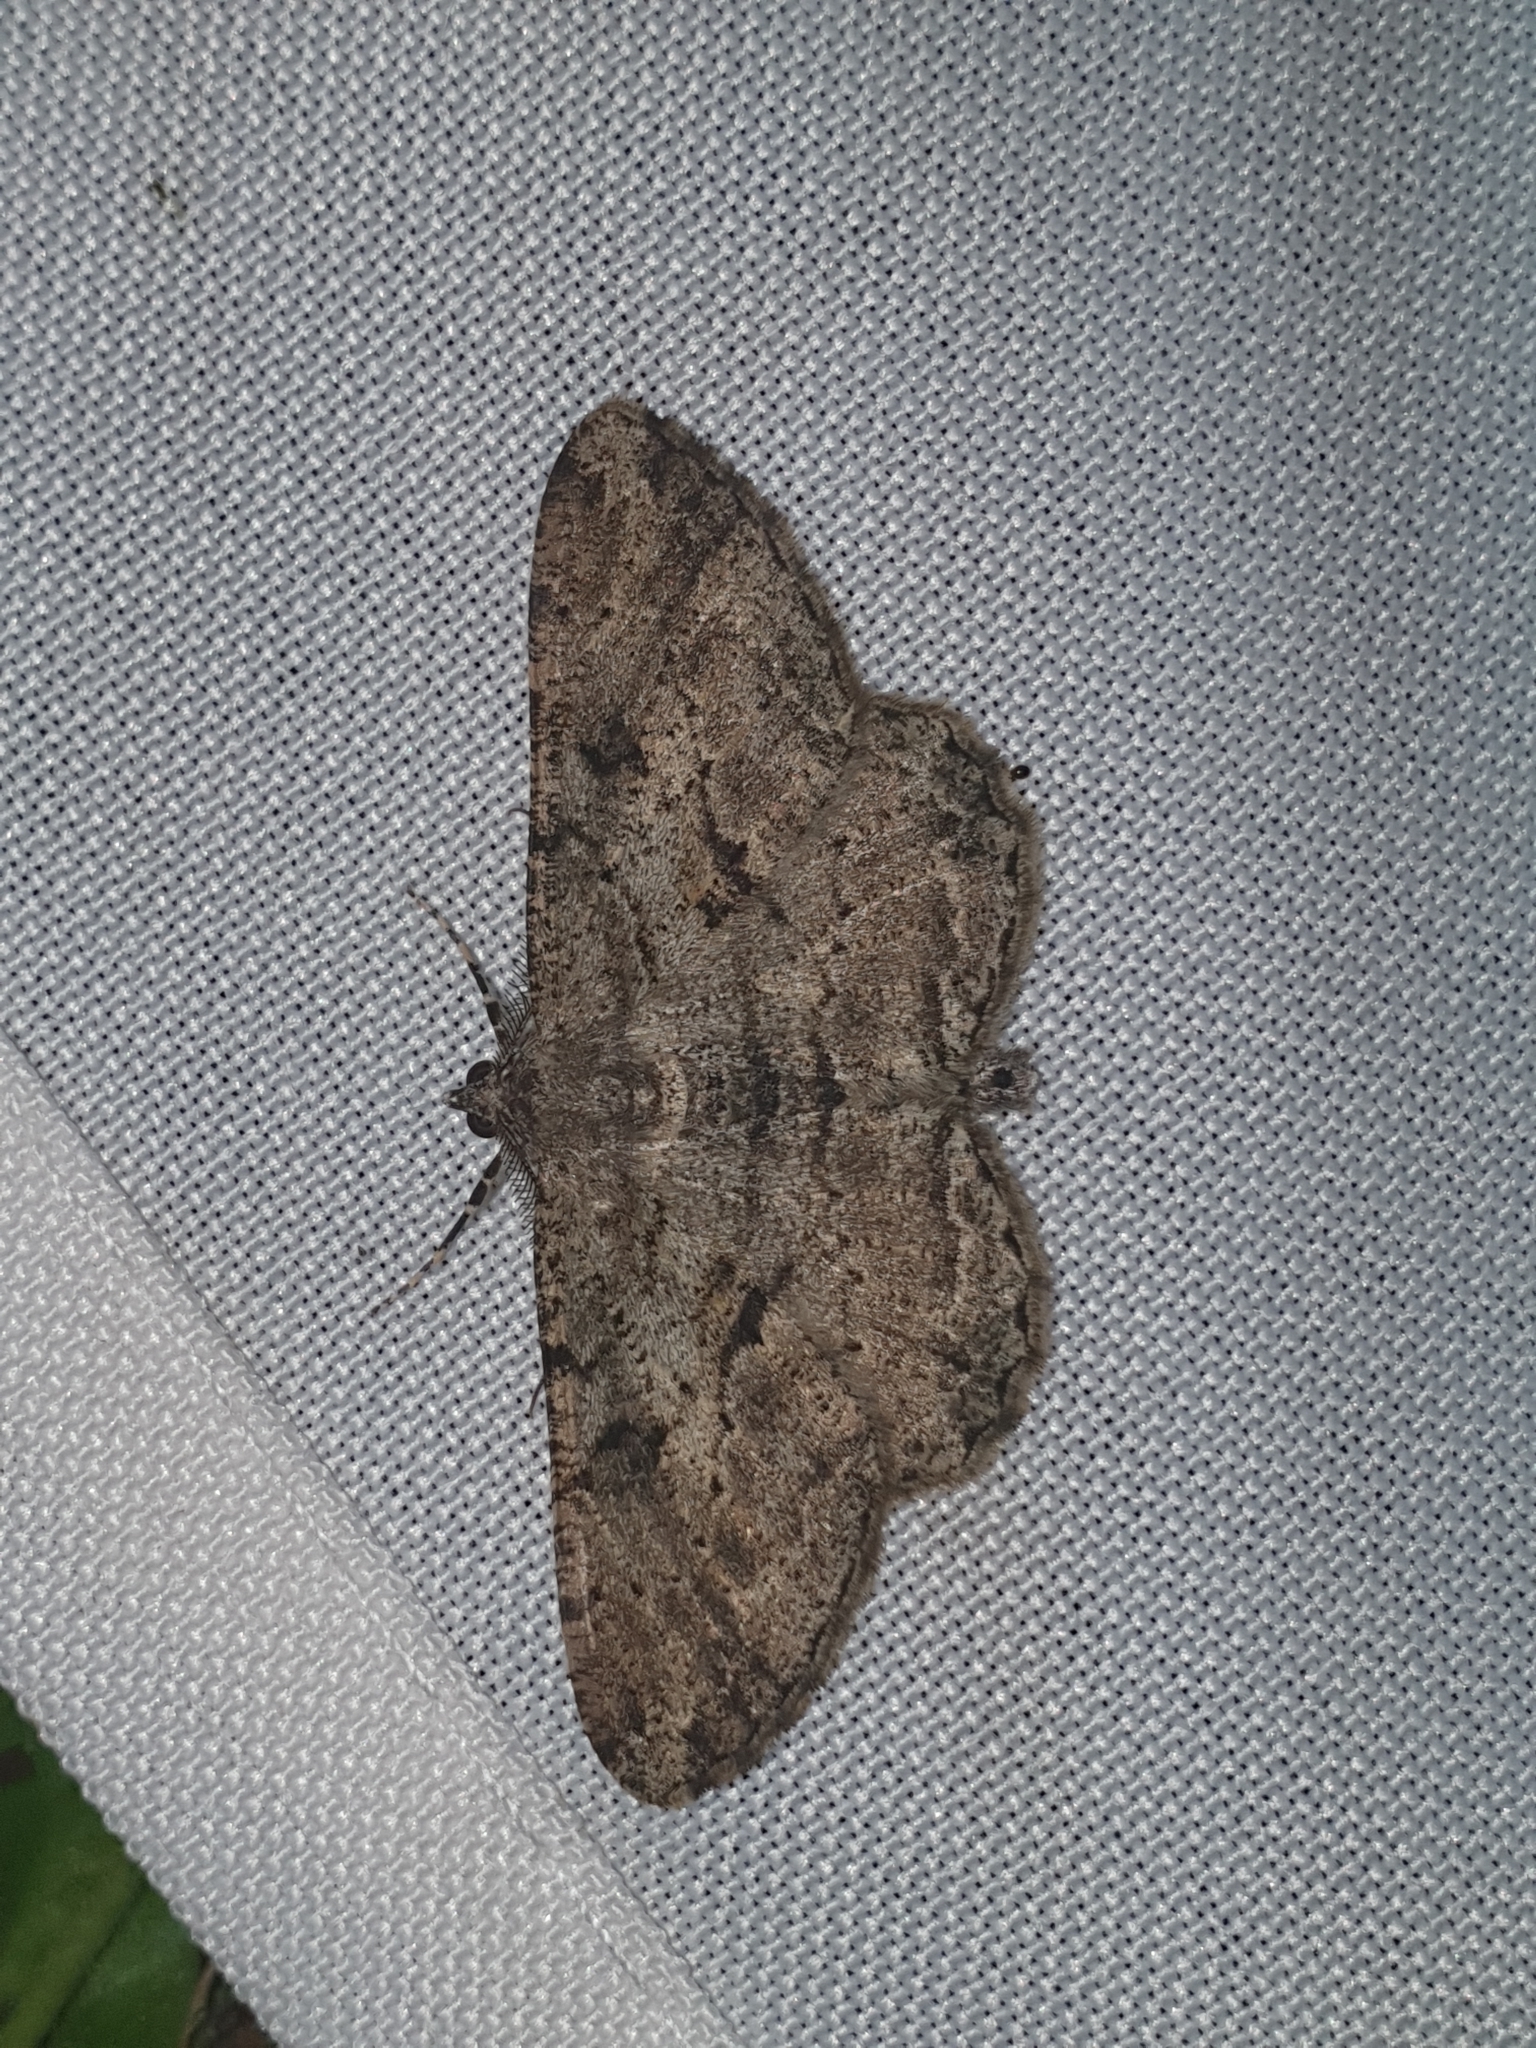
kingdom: Animalia
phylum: Arthropoda
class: Insecta
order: Lepidoptera
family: Geometridae
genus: Peribatodes
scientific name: Peribatodes rhomboidaria
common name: Willow beauty
